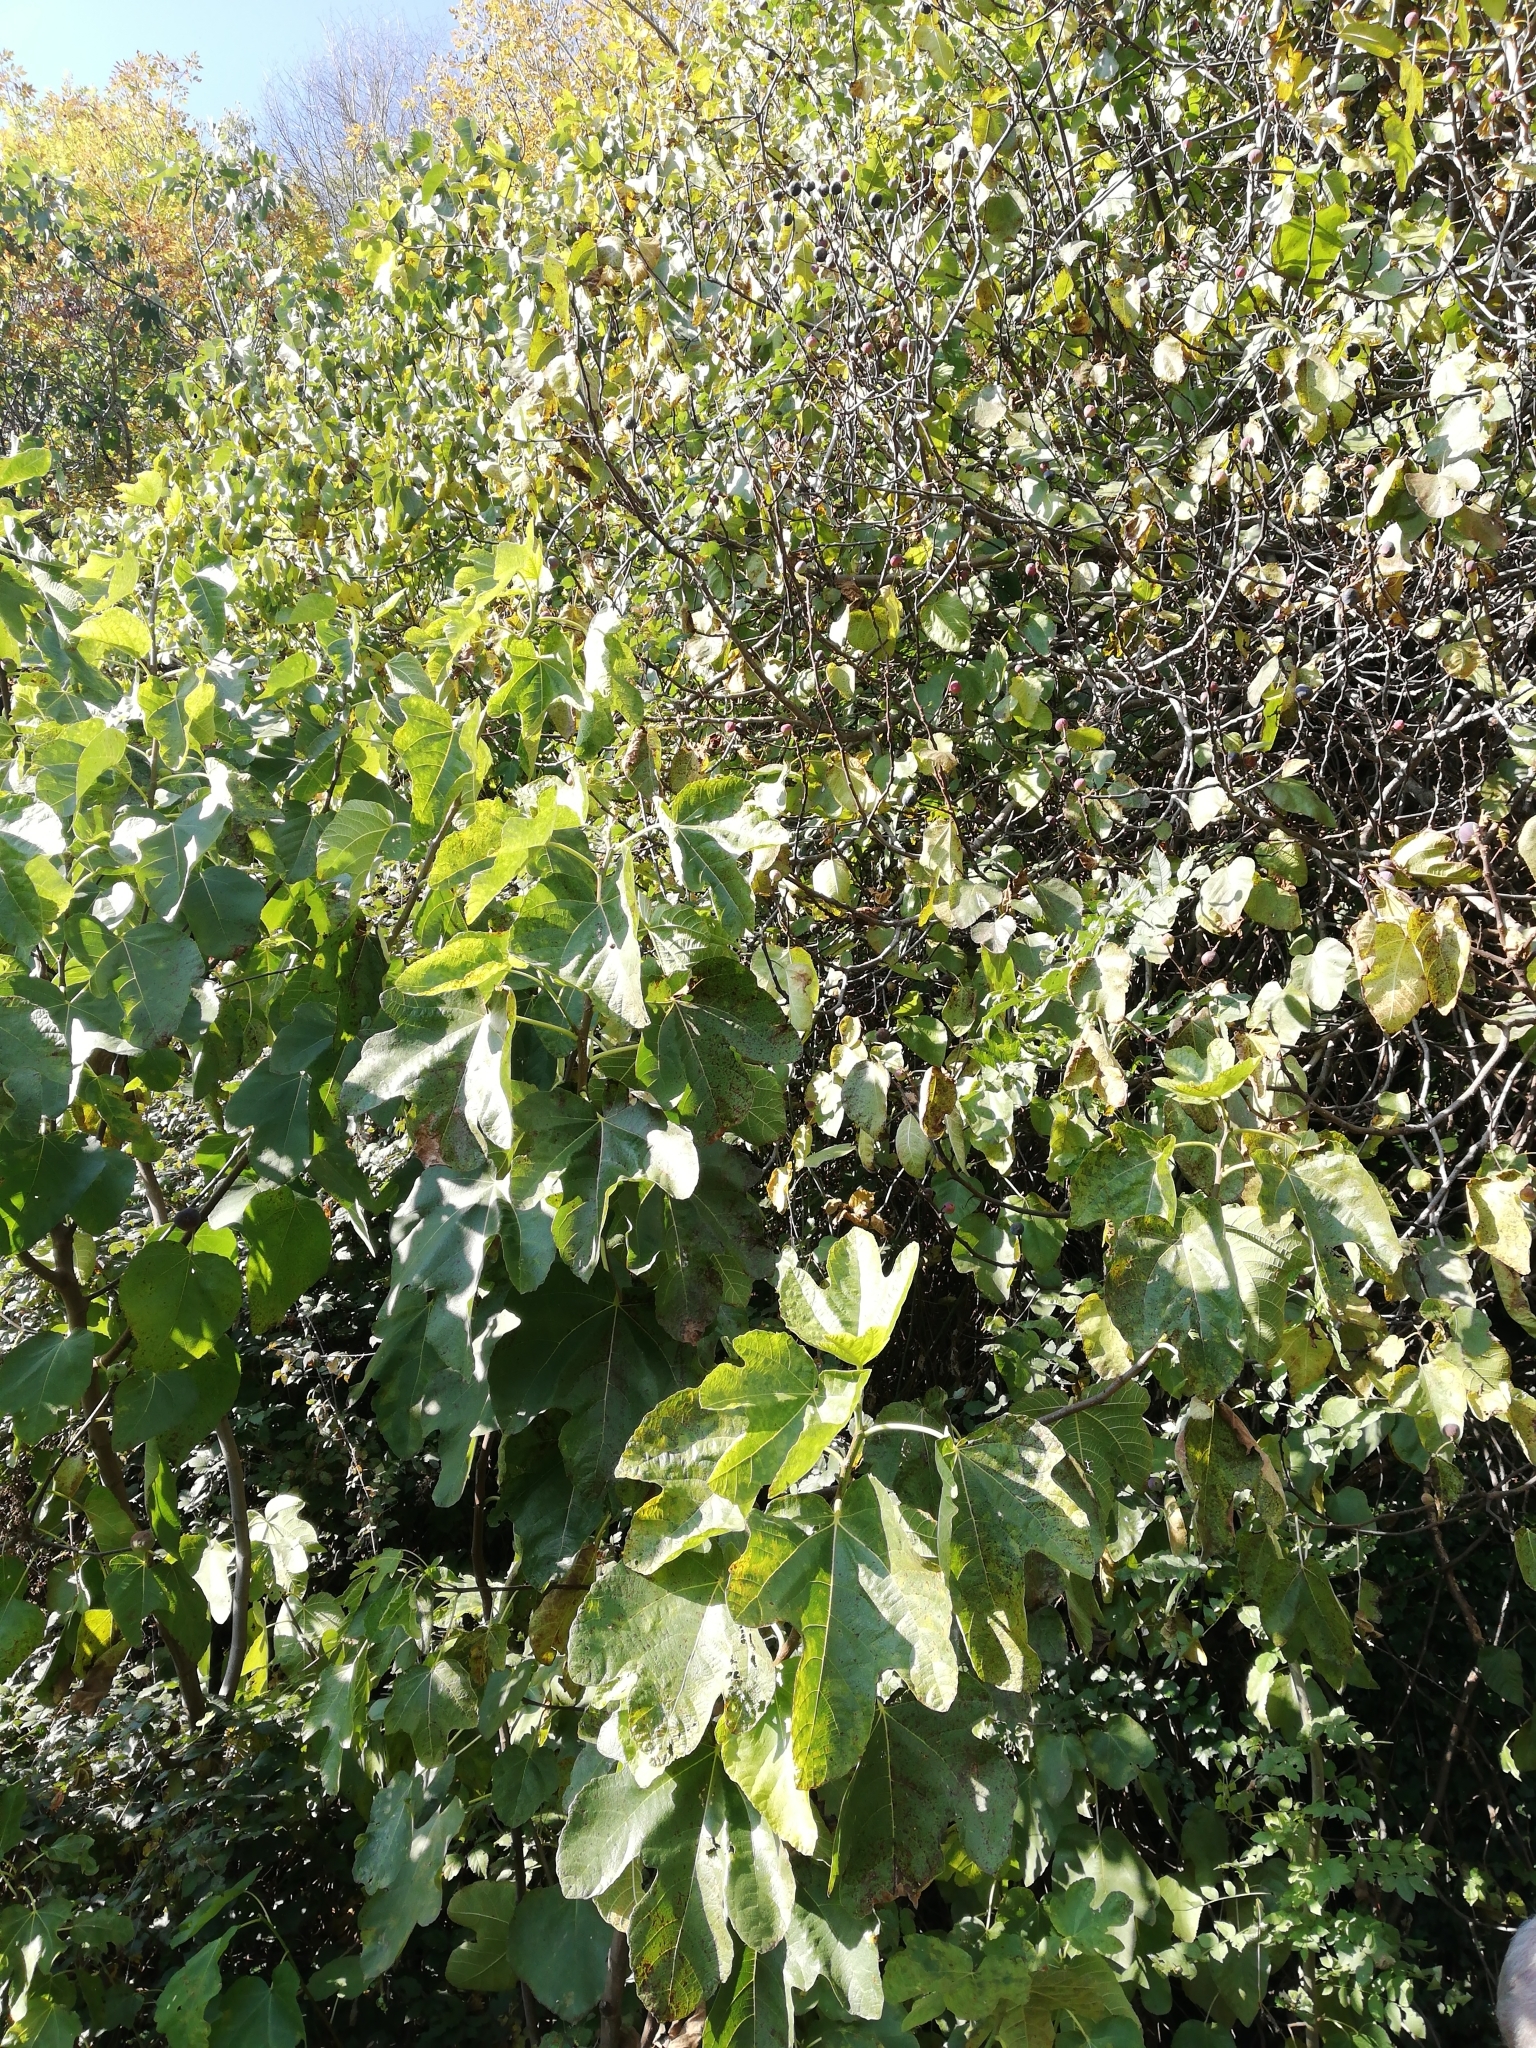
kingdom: Plantae
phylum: Tracheophyta
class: Magnoliopsida
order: Rosales
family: Moraceae
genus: Ficus
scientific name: Ficus carica
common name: Fig
